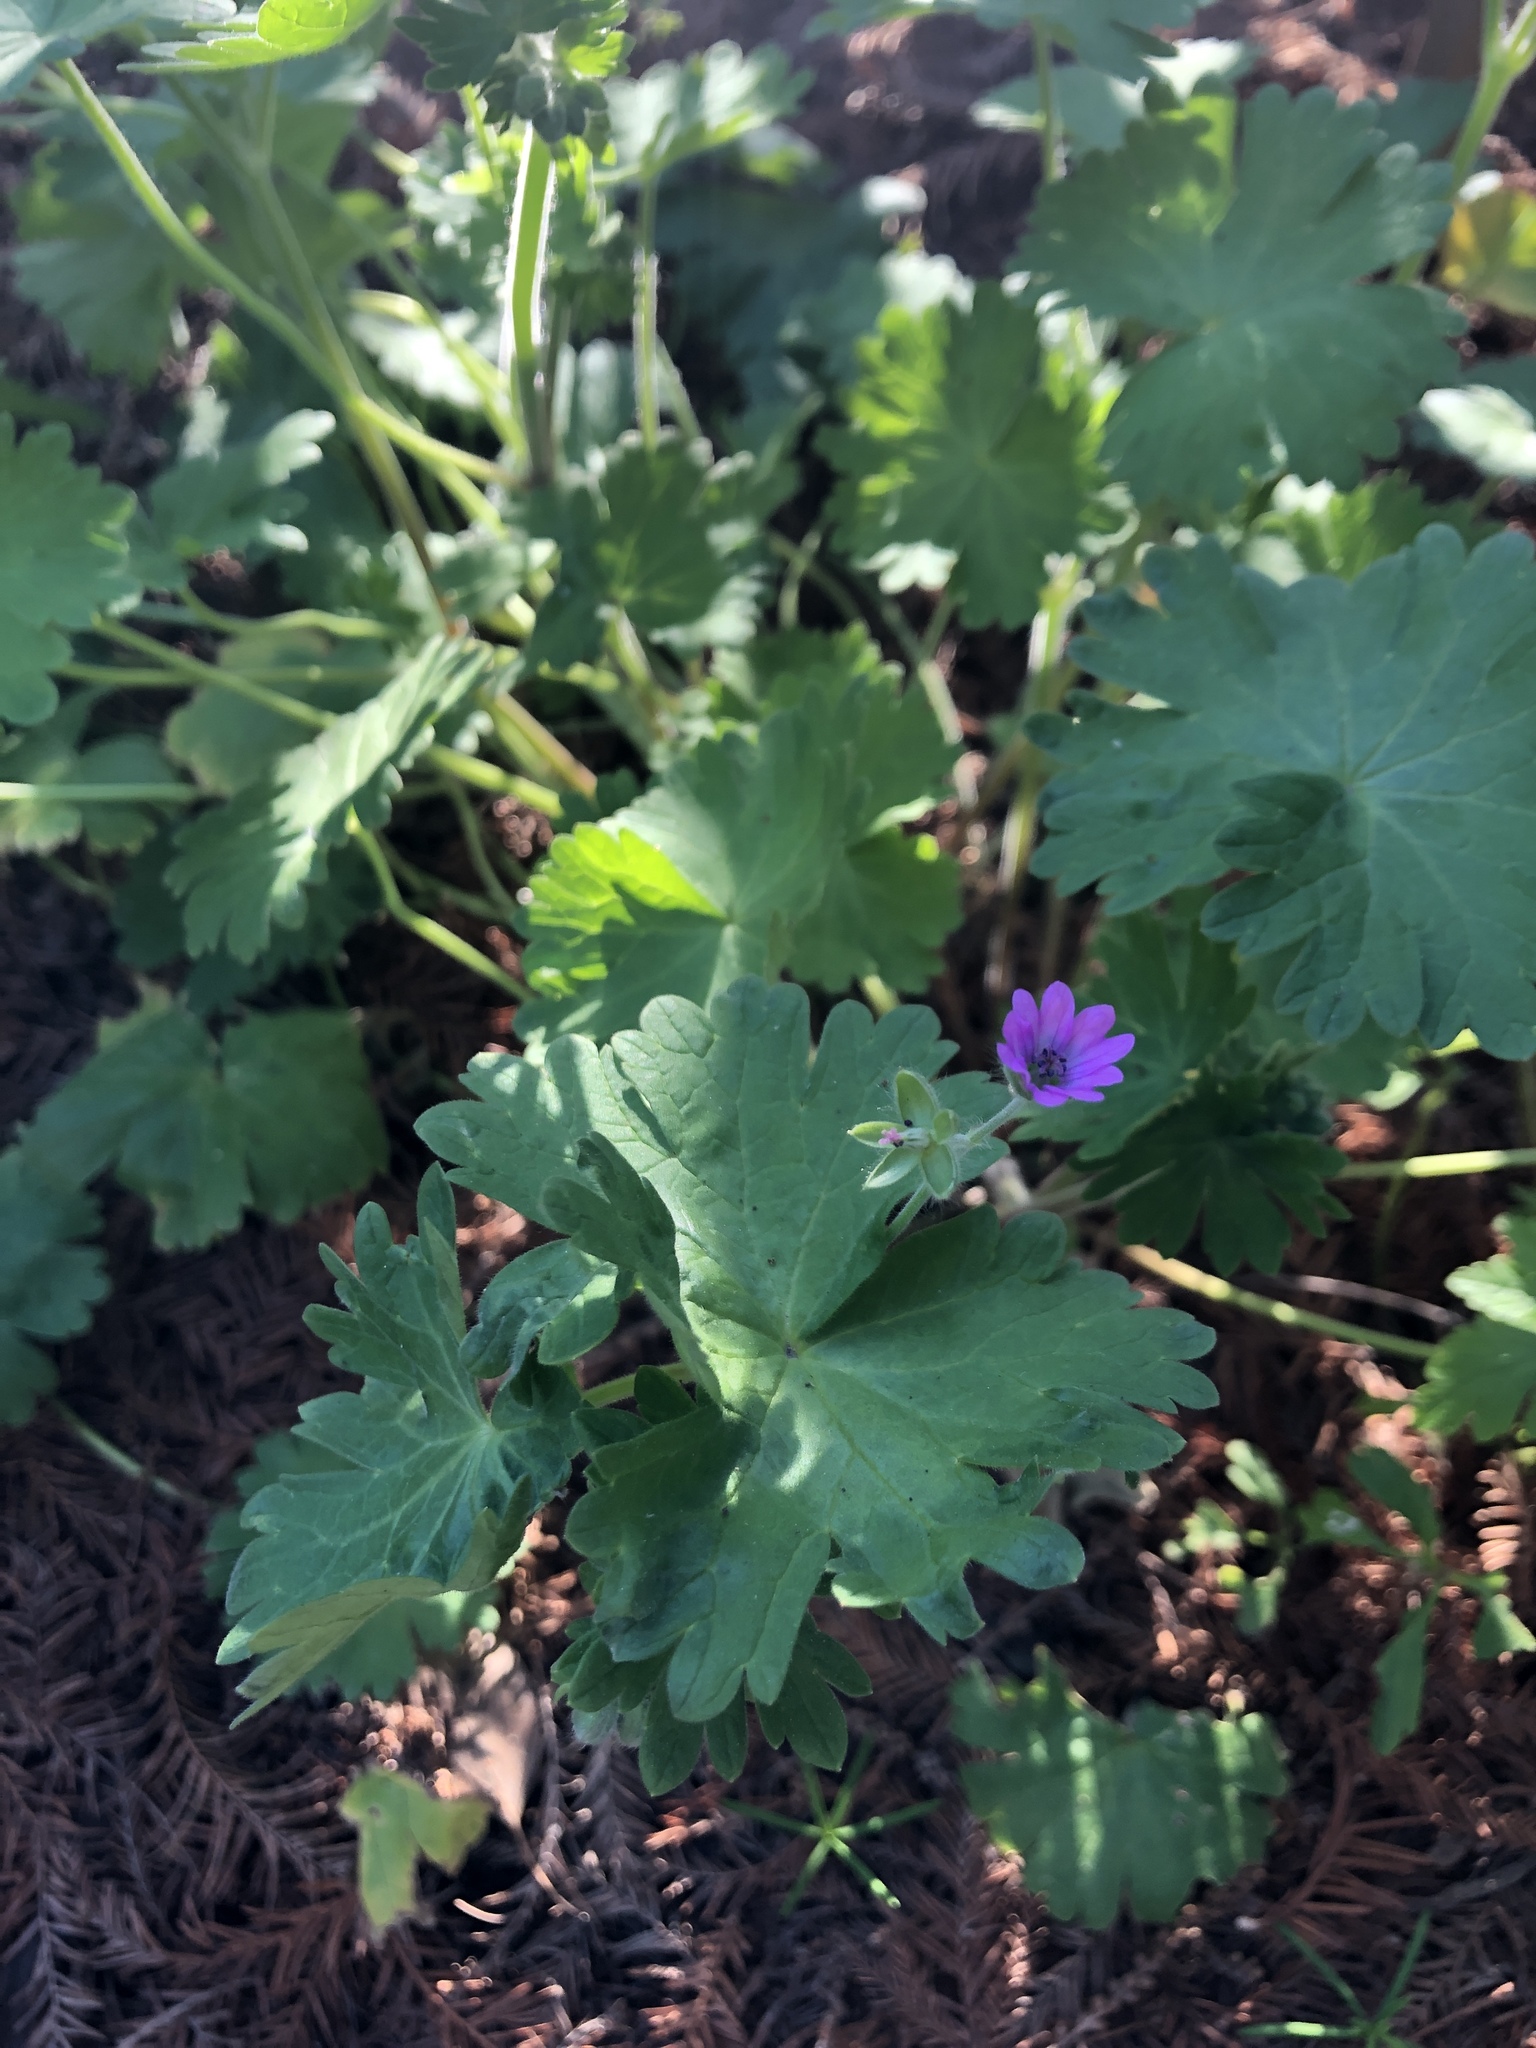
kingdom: Plantae
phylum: Tracheophyta
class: Magnoliopsida
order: Geraniales
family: Geraniaceae
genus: Geranium
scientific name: Geranium molle
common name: Dove's-foot crane's-bill
